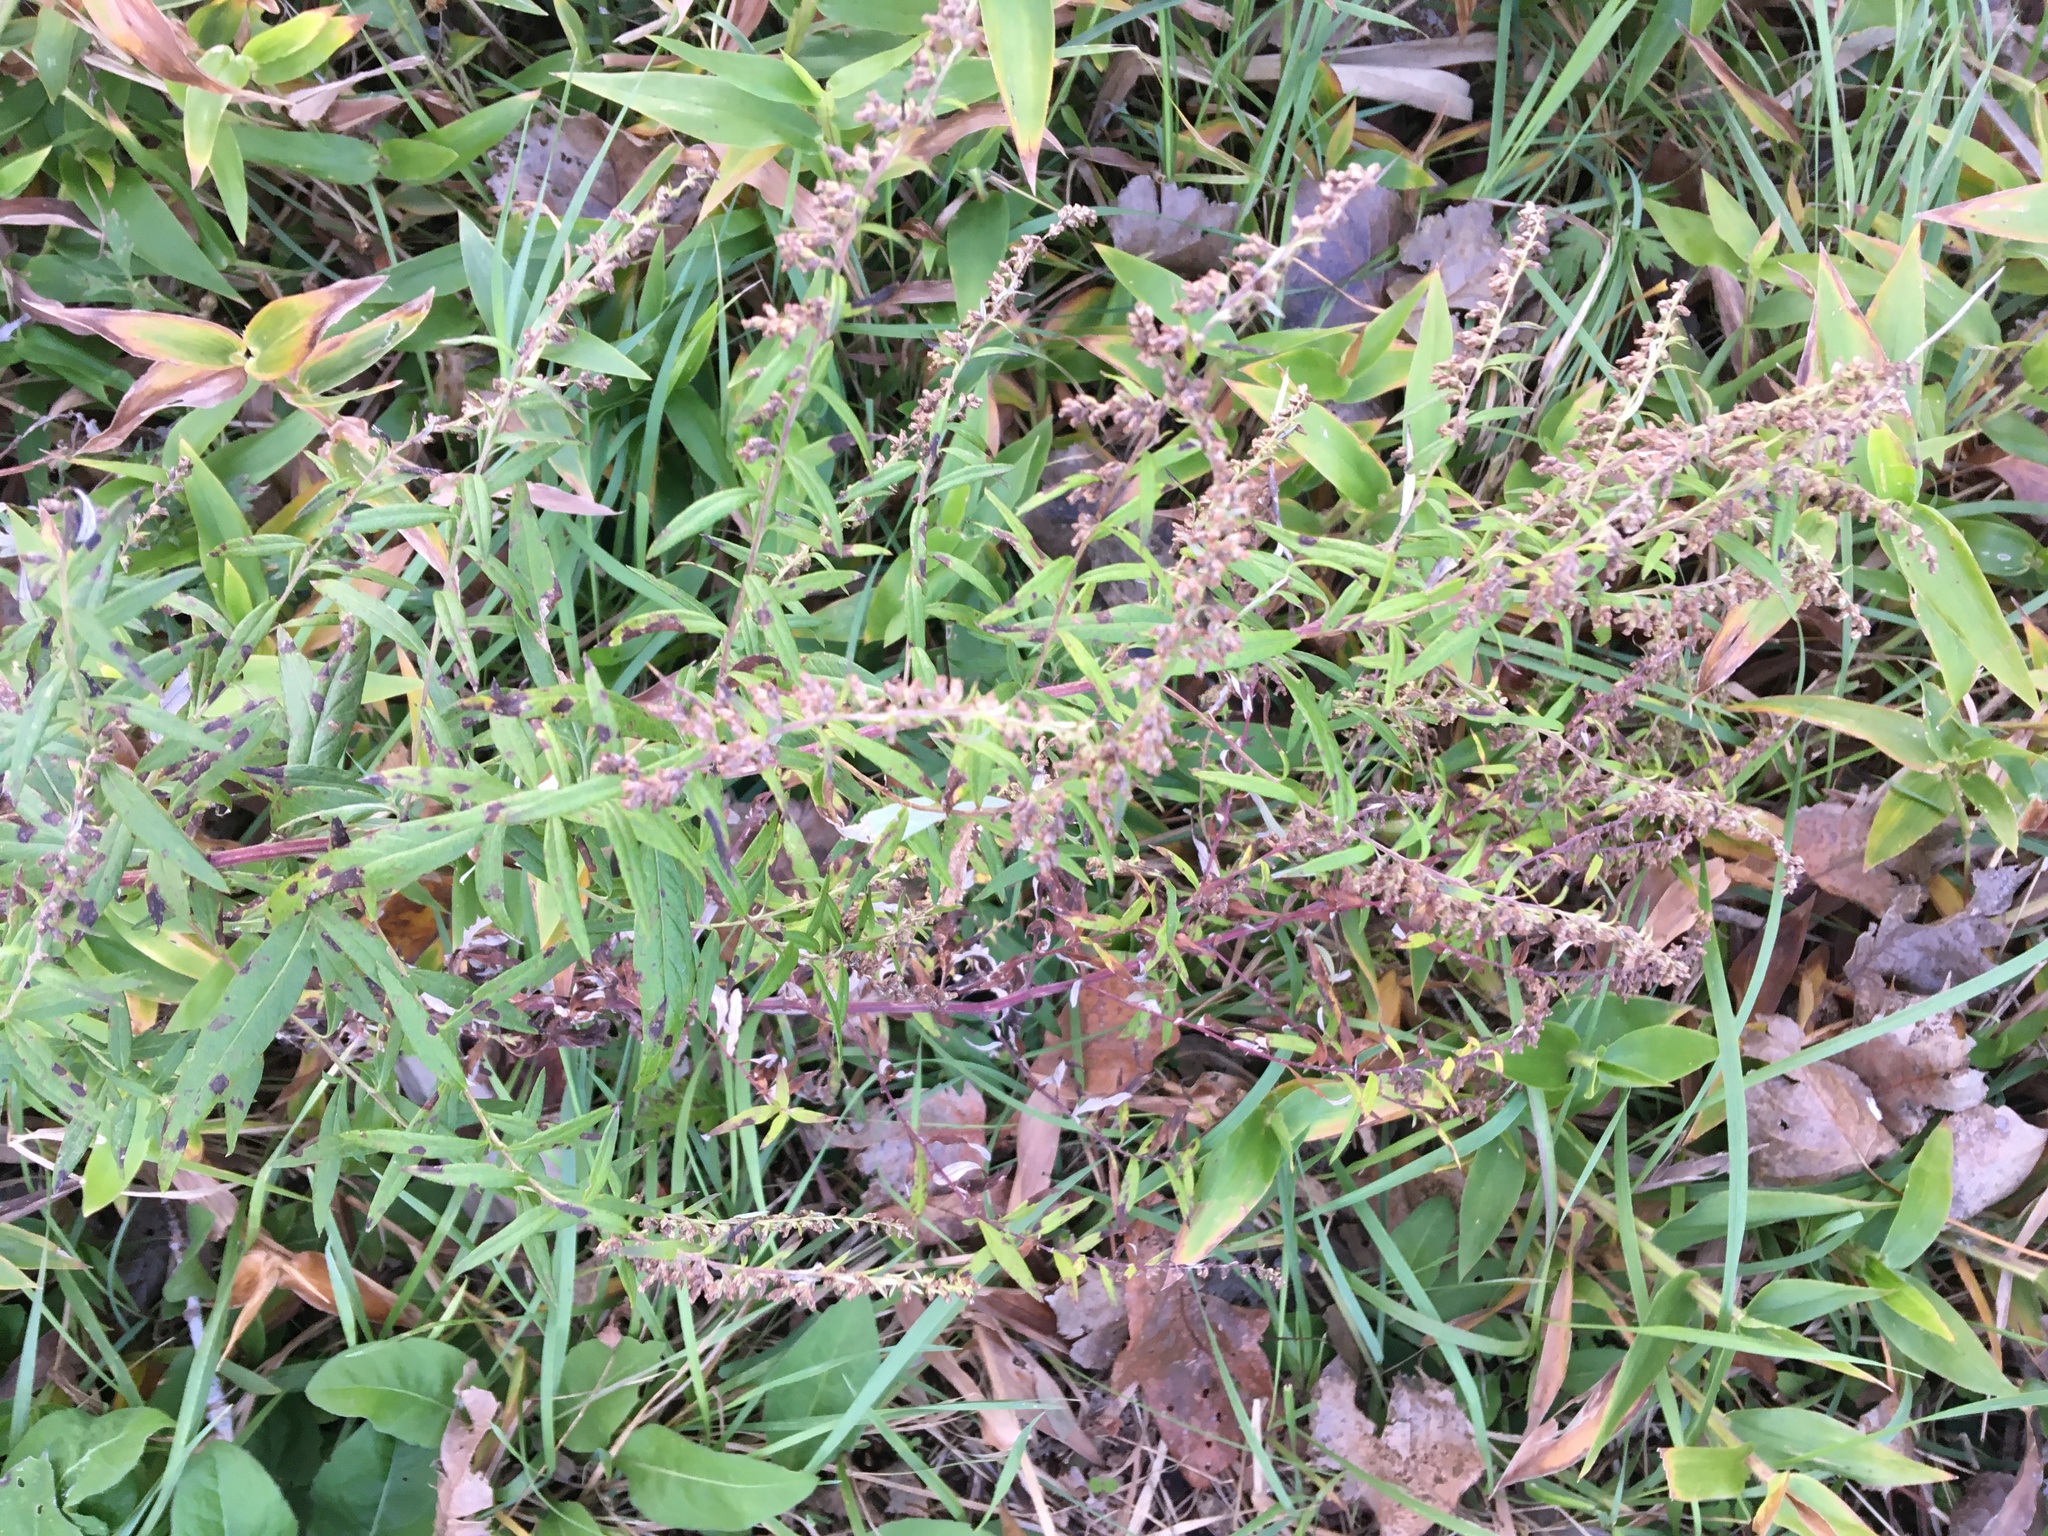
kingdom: Plantae
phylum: Tracheophyta
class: Magnoliopsida
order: Asterales
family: Asteraceae
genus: Artemisia
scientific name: Artemisia vulgaris
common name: Mugwort
